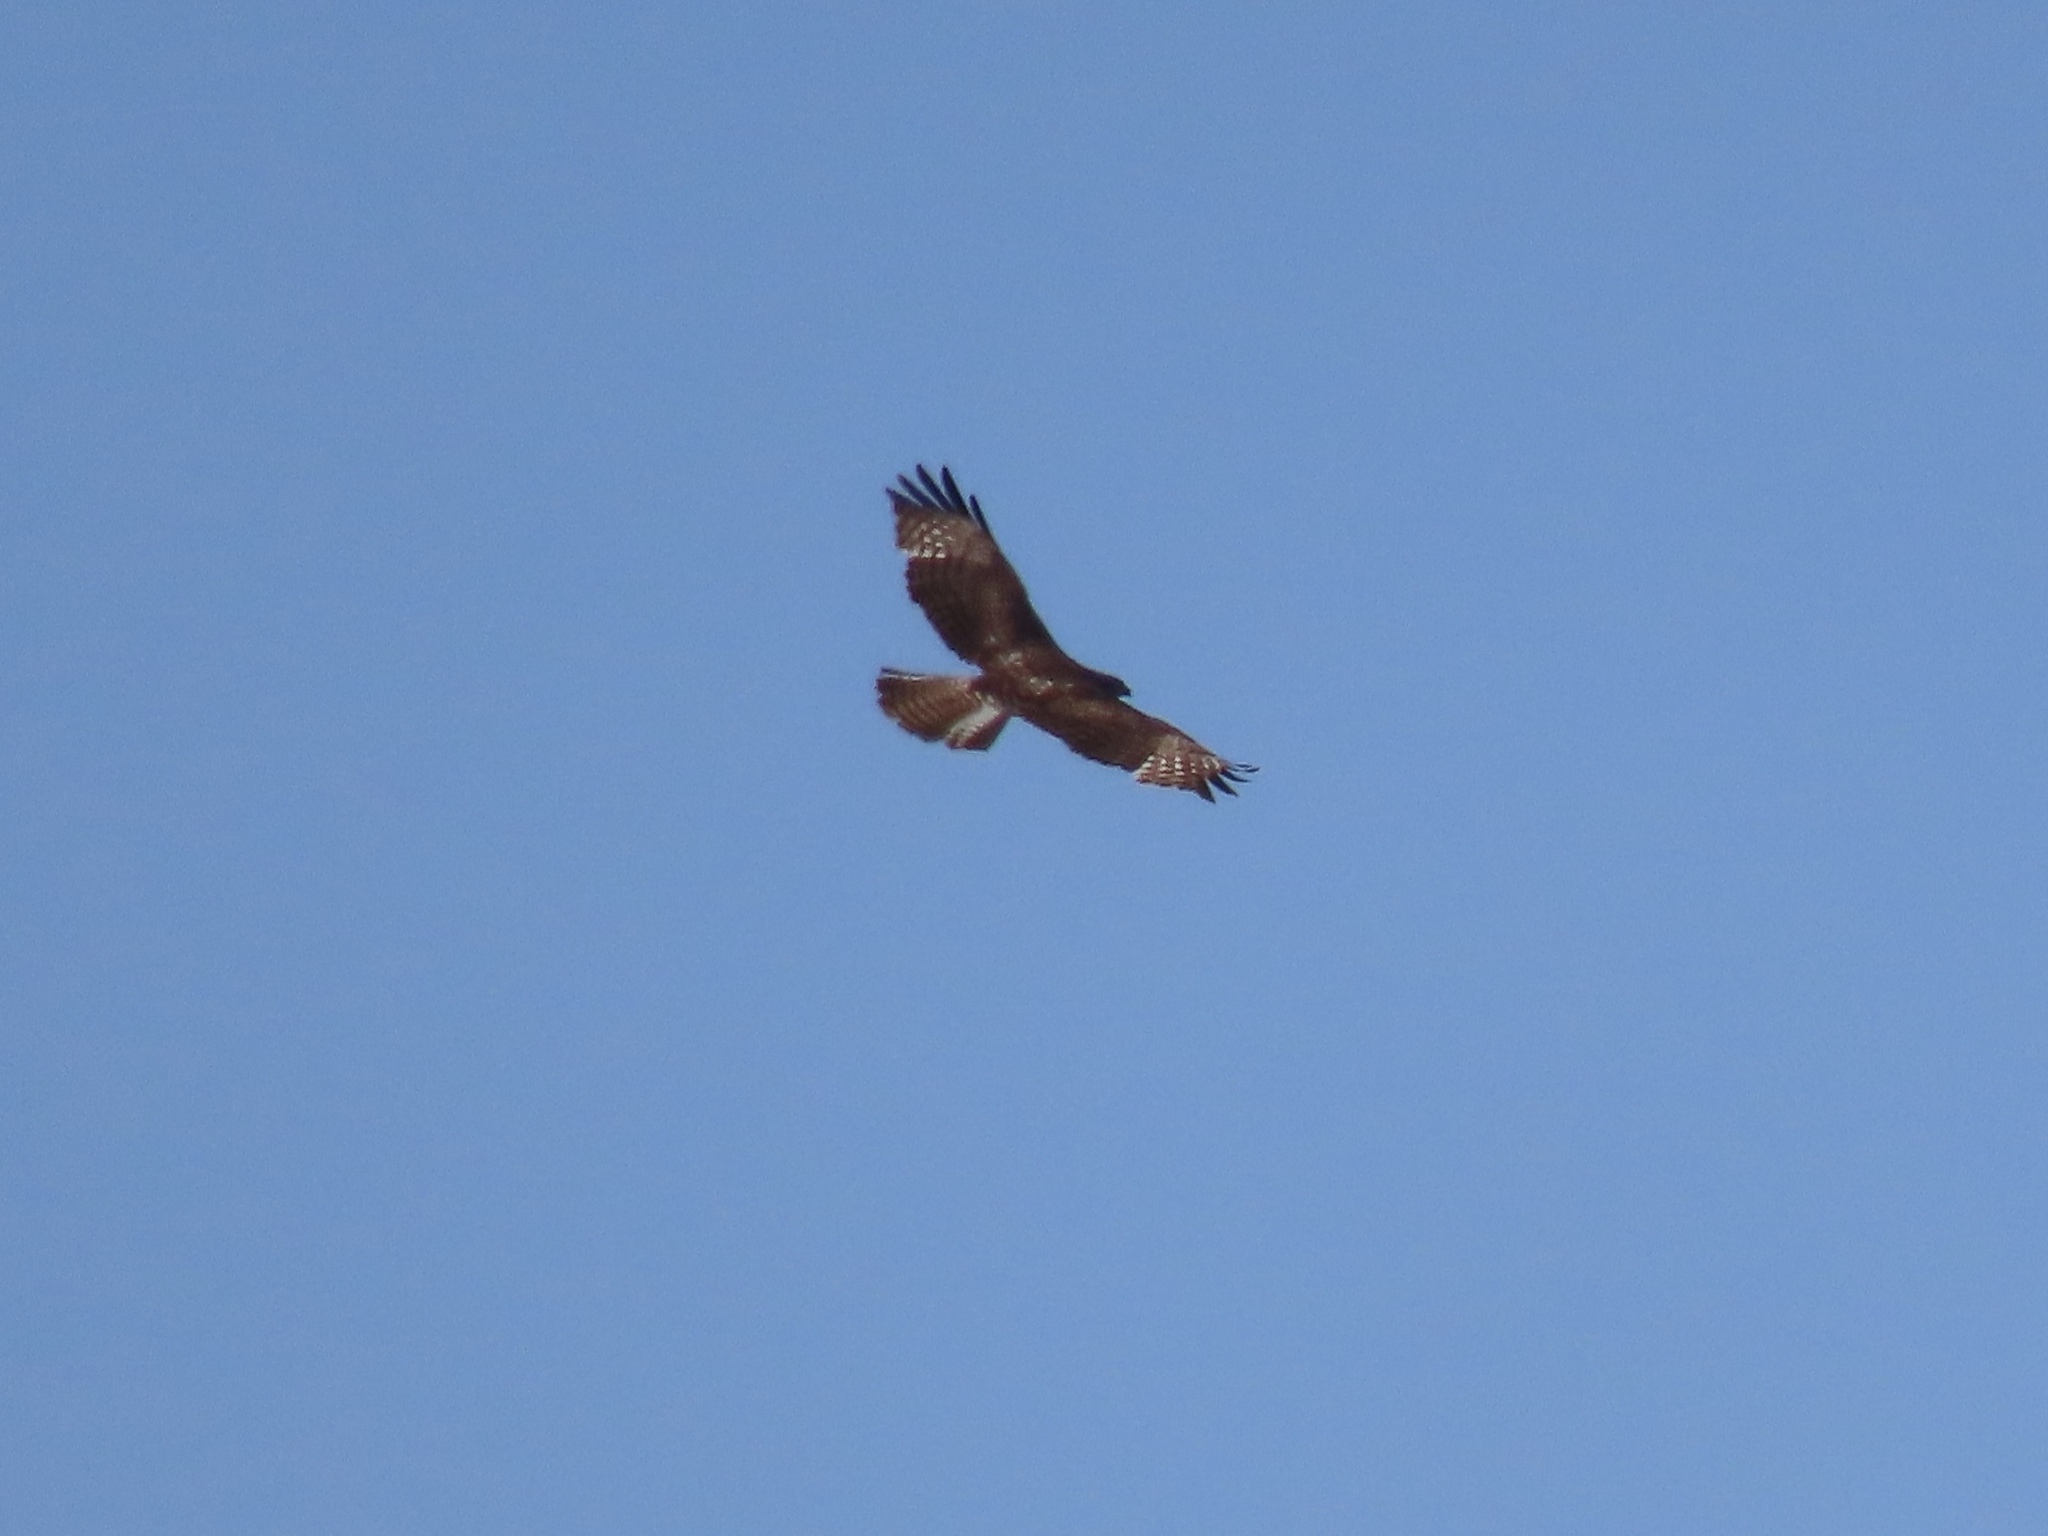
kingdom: Animalia
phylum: Chordata
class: Aves
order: Accipitriformes
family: Accipitridae
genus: Buteo
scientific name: Buteo jamaicensis
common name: Red-tailed hawk
